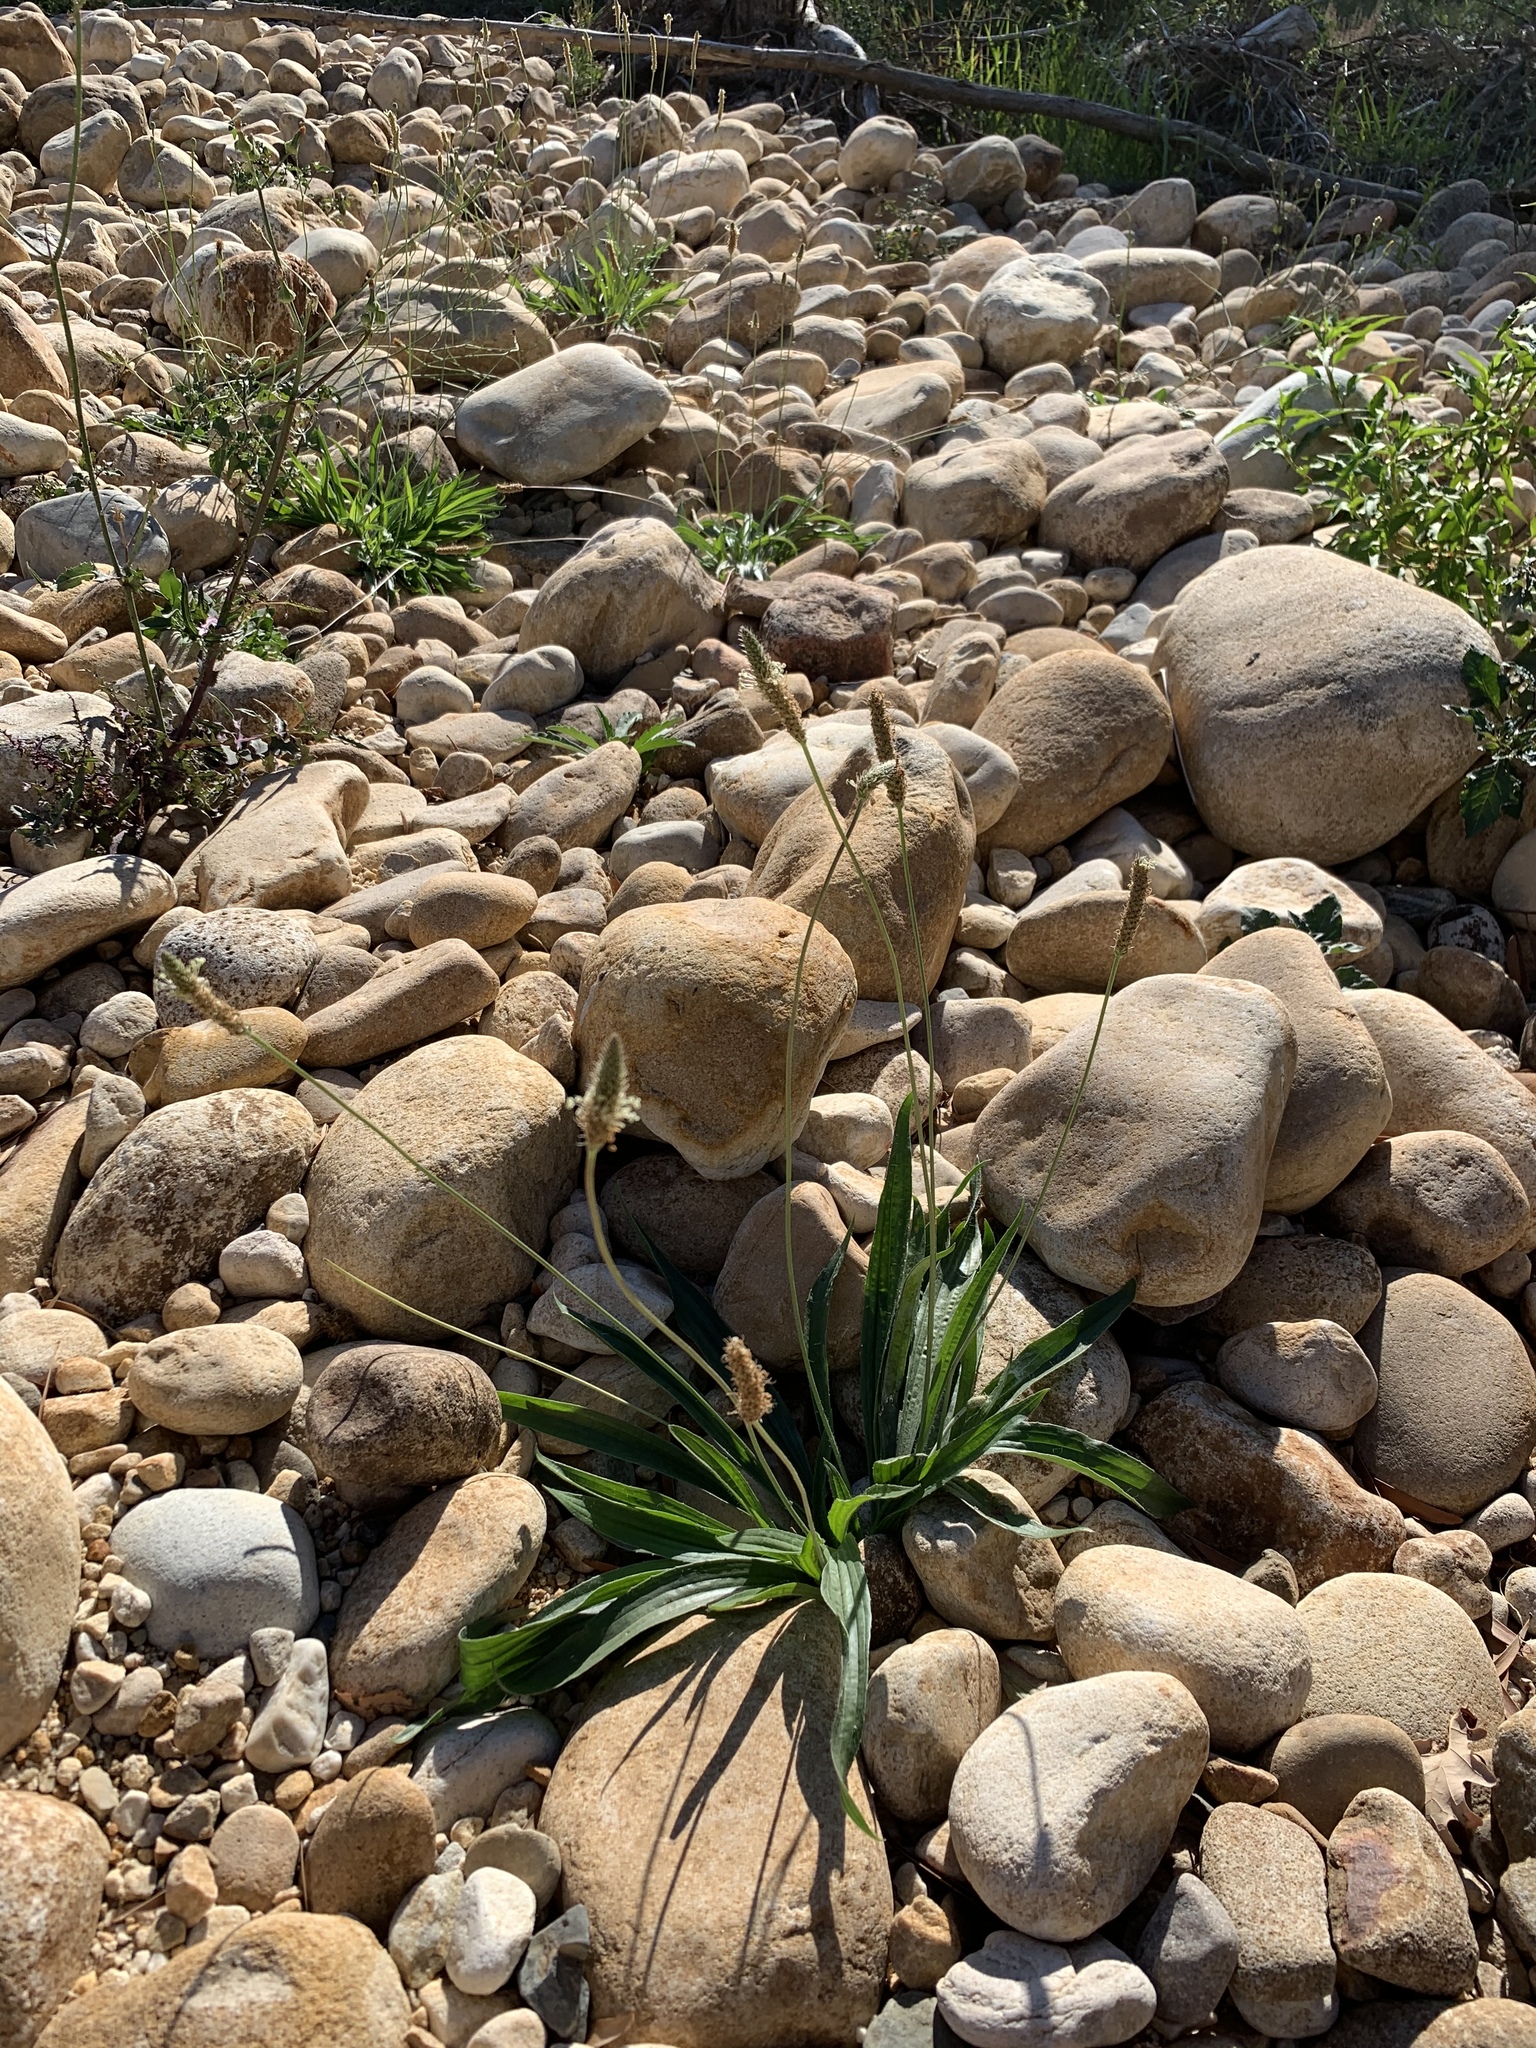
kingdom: Plantae
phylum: Tracheophyta
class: Magnoliopsida
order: Lamiales
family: Plantaginaceae
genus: Plantago
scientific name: Plantago lanceolata
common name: Ribwort plantain
